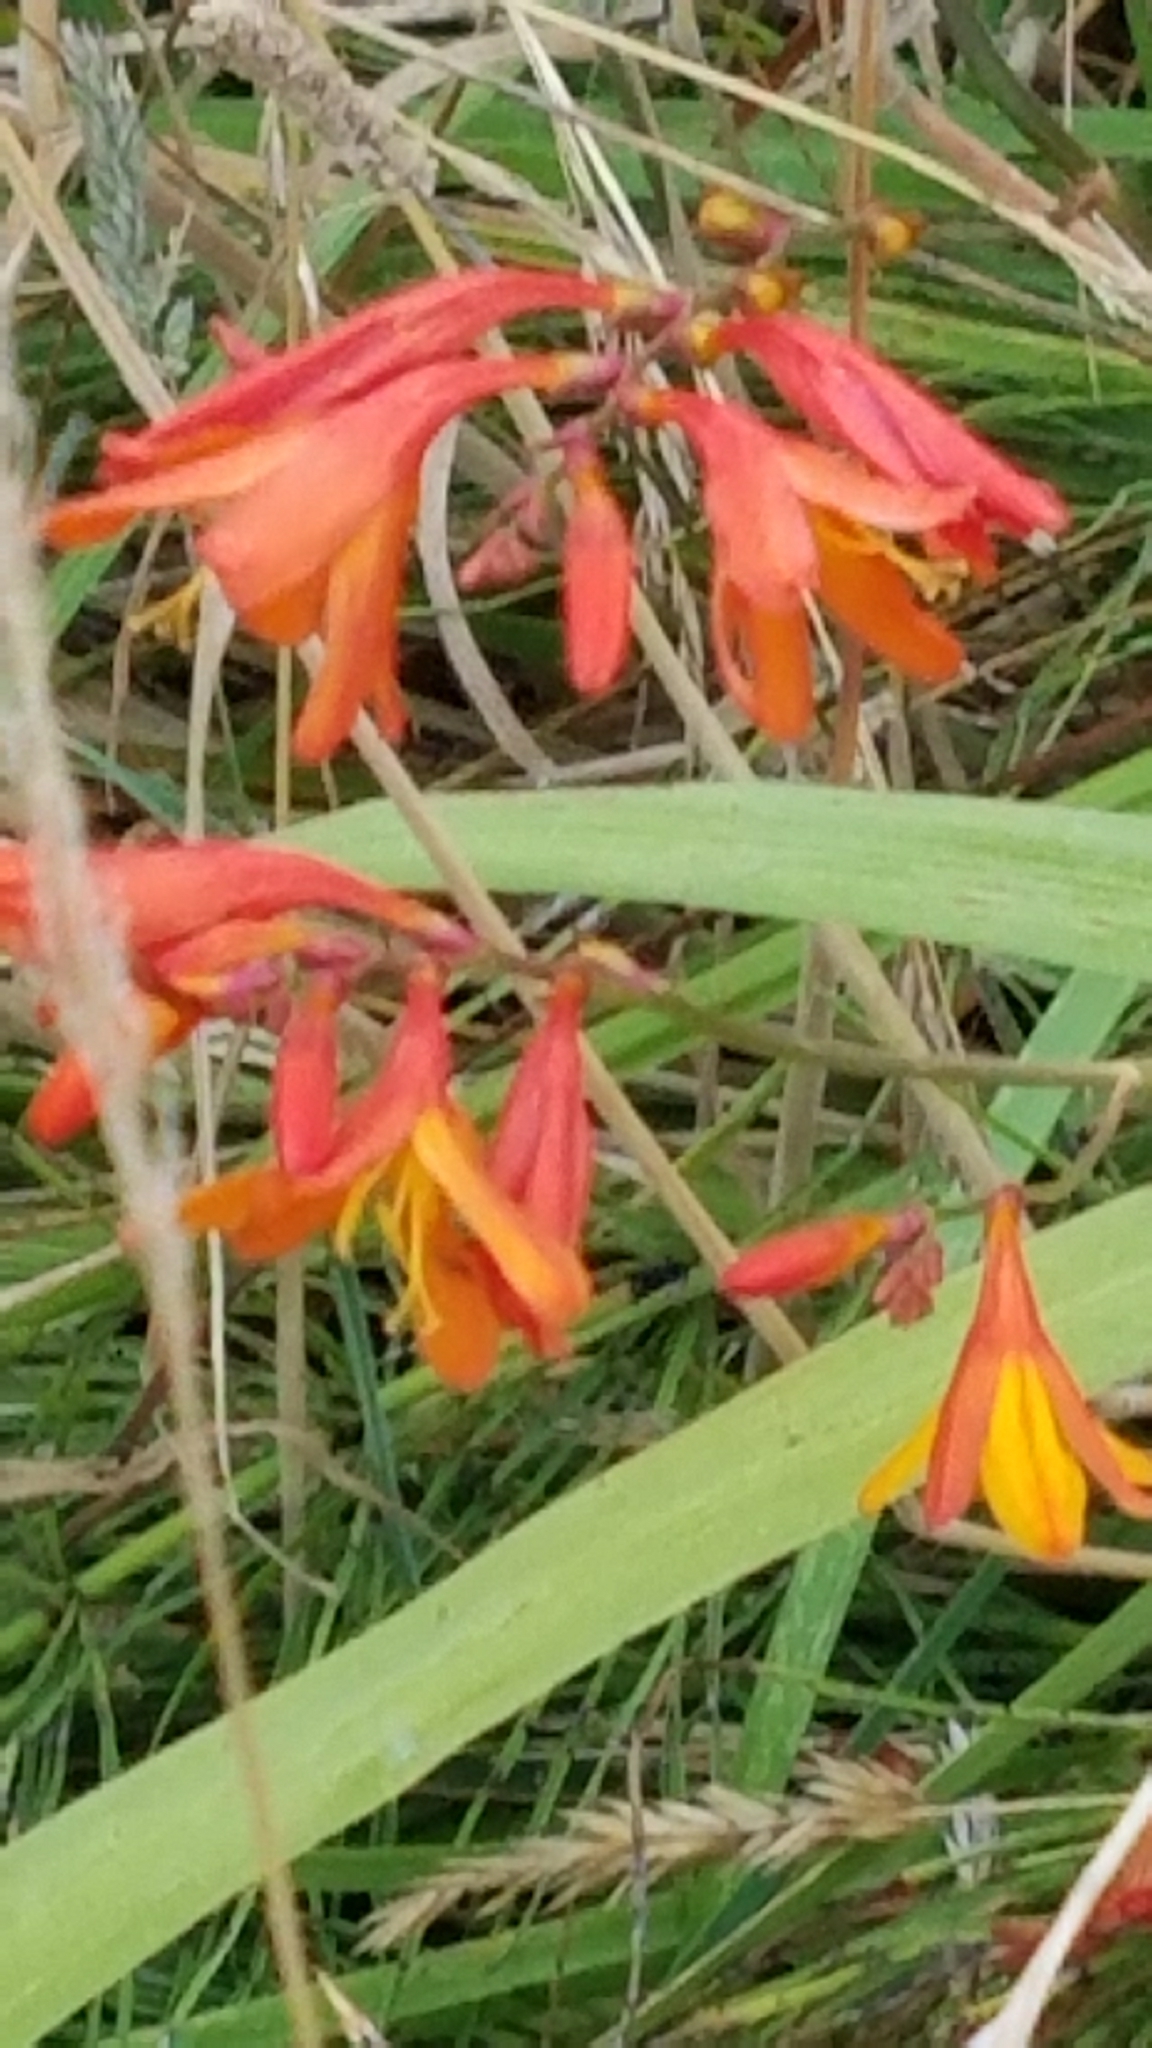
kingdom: Plantae
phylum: Tracheophyta
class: Liliopsida
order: Asparagales
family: Iridaceae
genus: Crocosmia
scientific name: Crocosmia crocosmiiflora
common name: Montbretia
